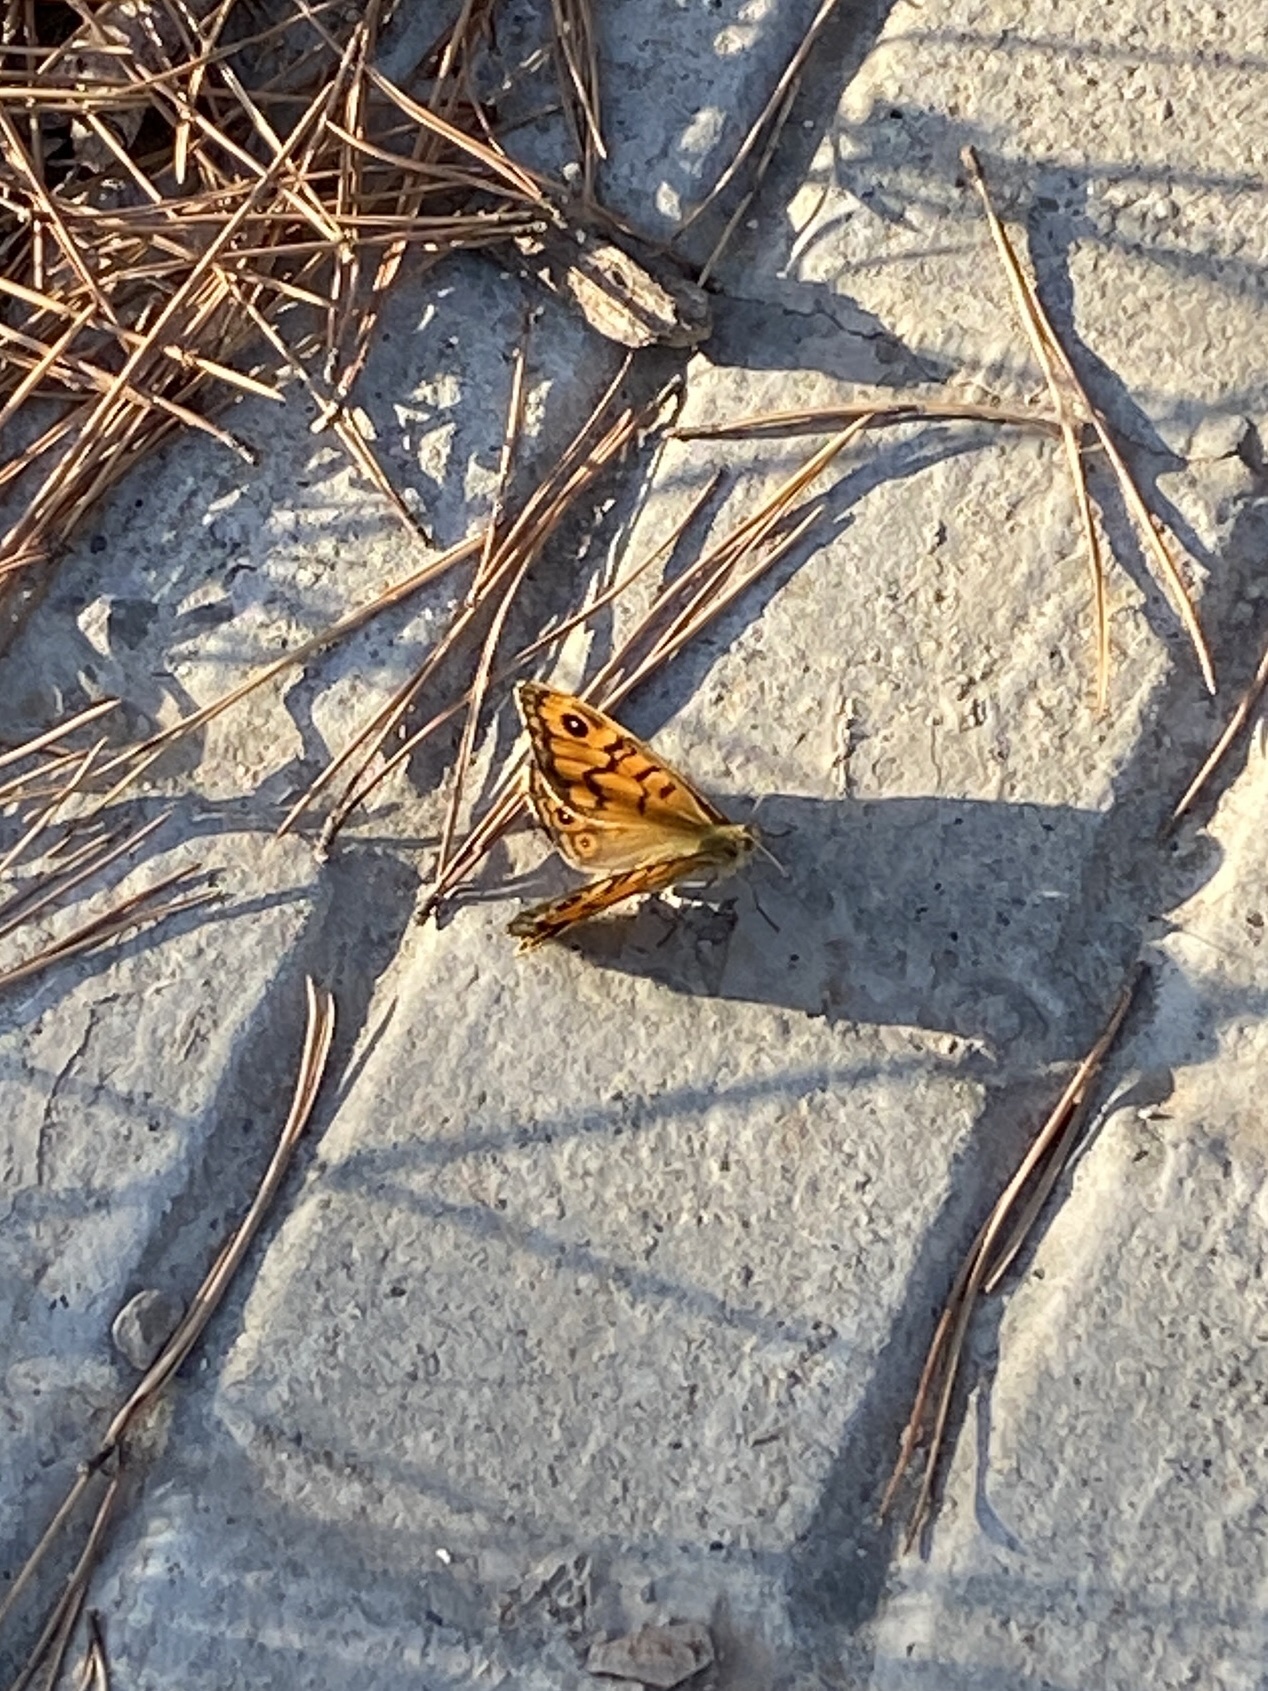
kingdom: Animalia
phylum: Arthropoda
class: Insecta
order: Lepidoptera
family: Nymphalidae
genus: Pararge
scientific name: Pararge Lasiommata megera
